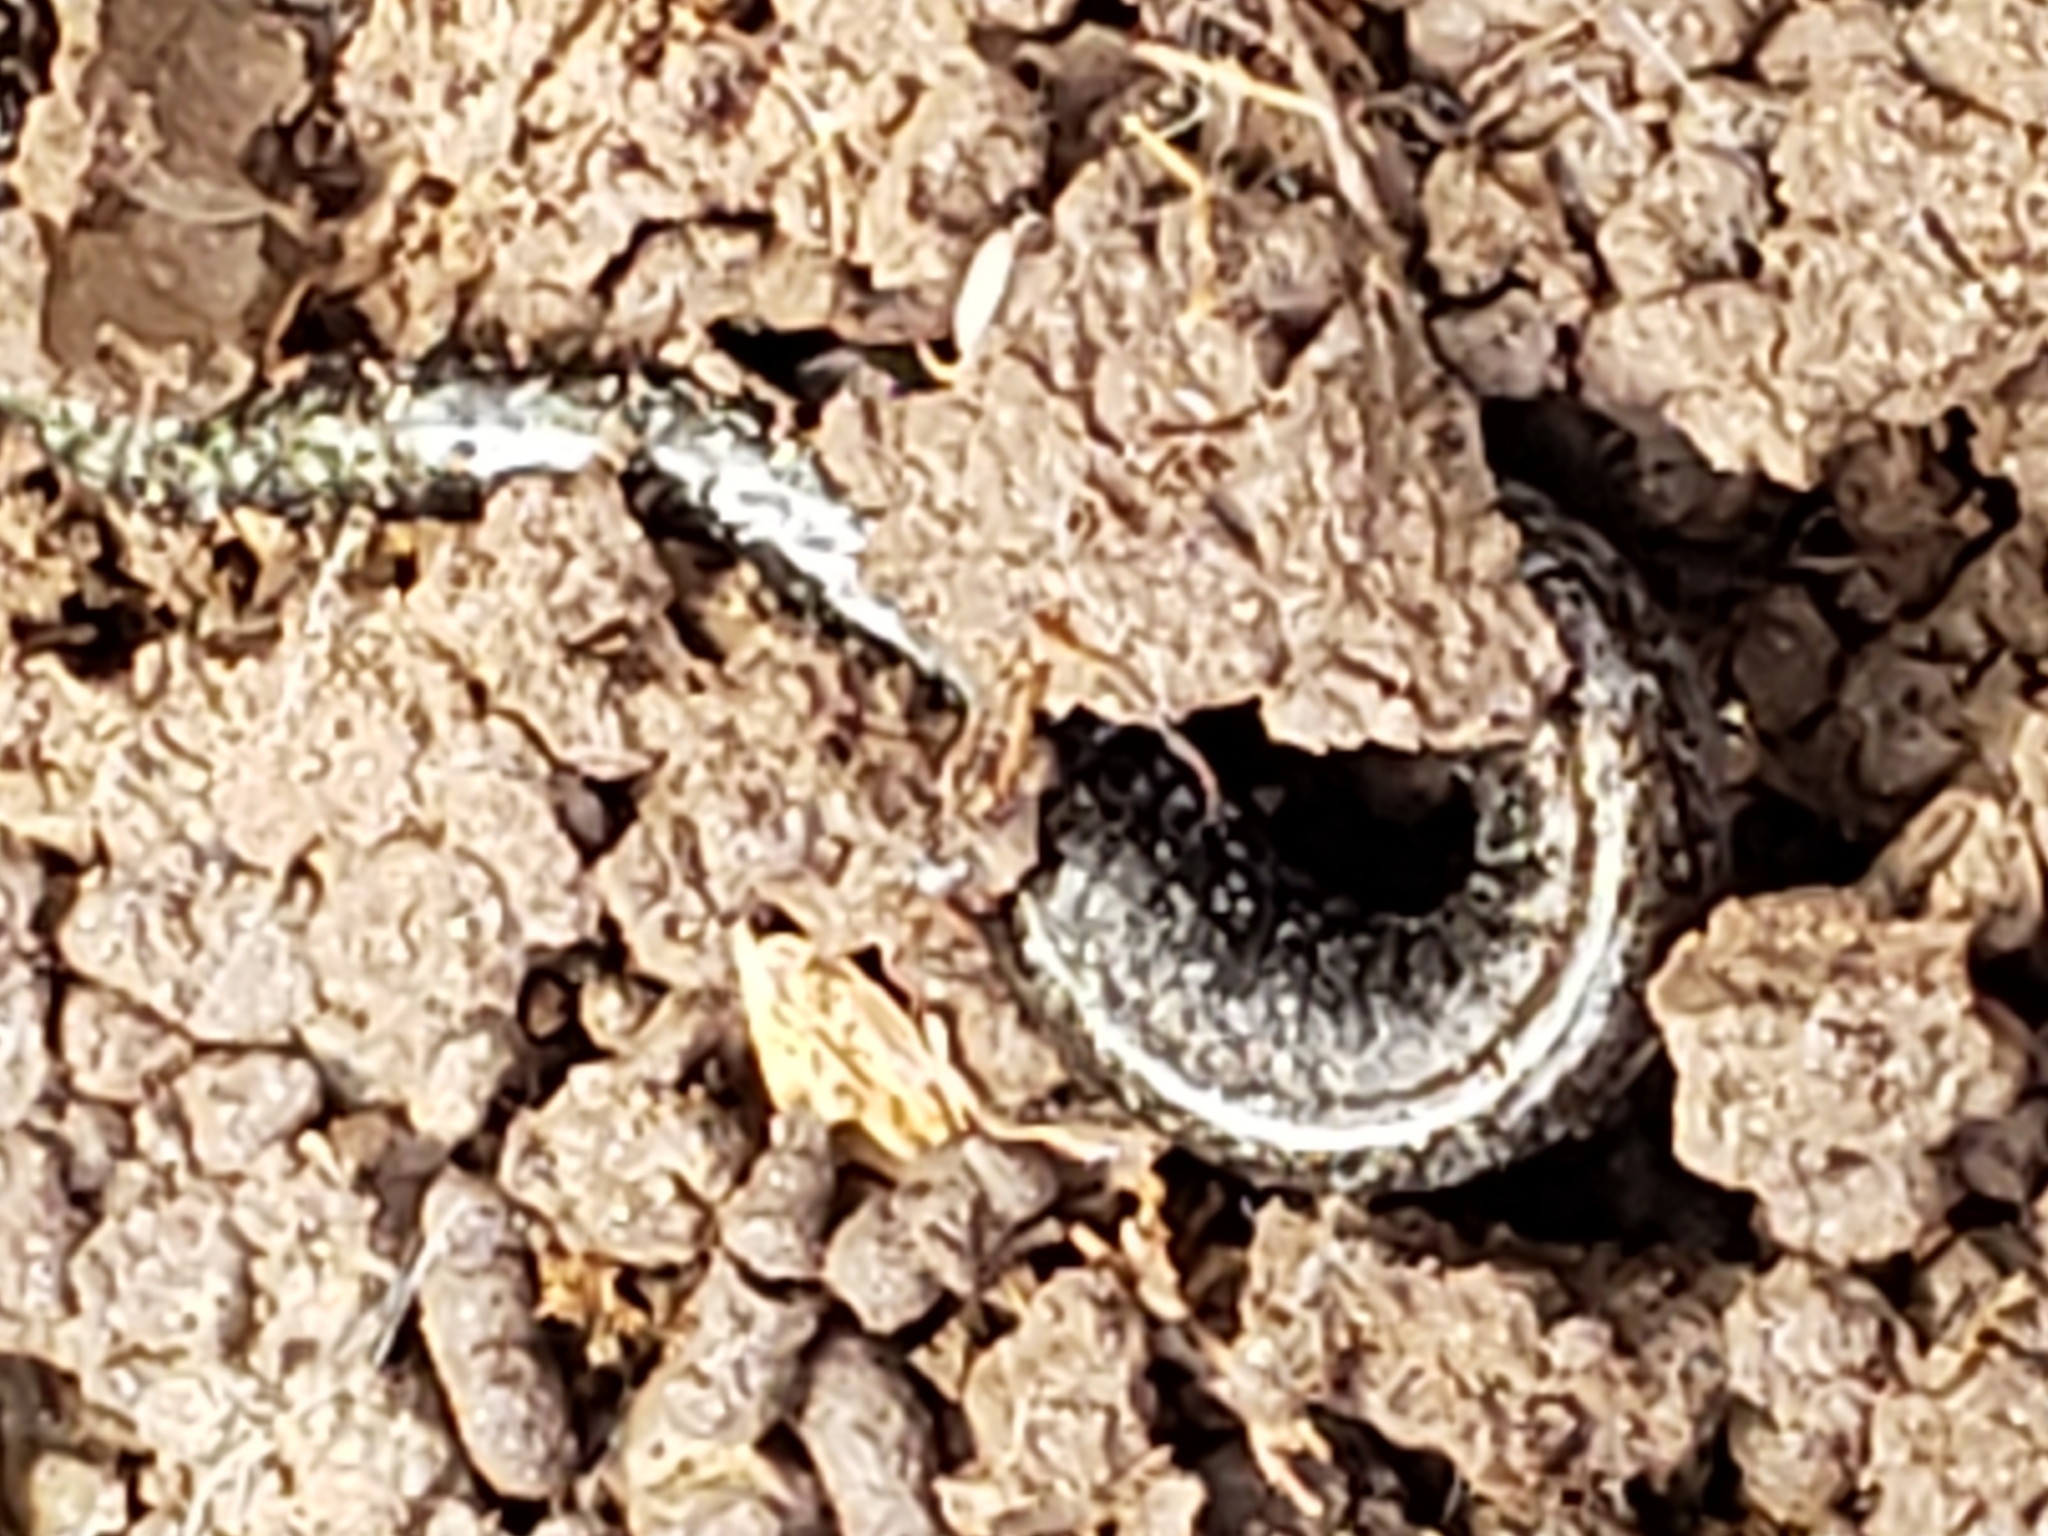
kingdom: Animalia
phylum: Chordata
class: Amphibia
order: Caudata
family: Plethodontidae
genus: Plethodon
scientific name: Plethodon cinereus
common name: Redback salamander
